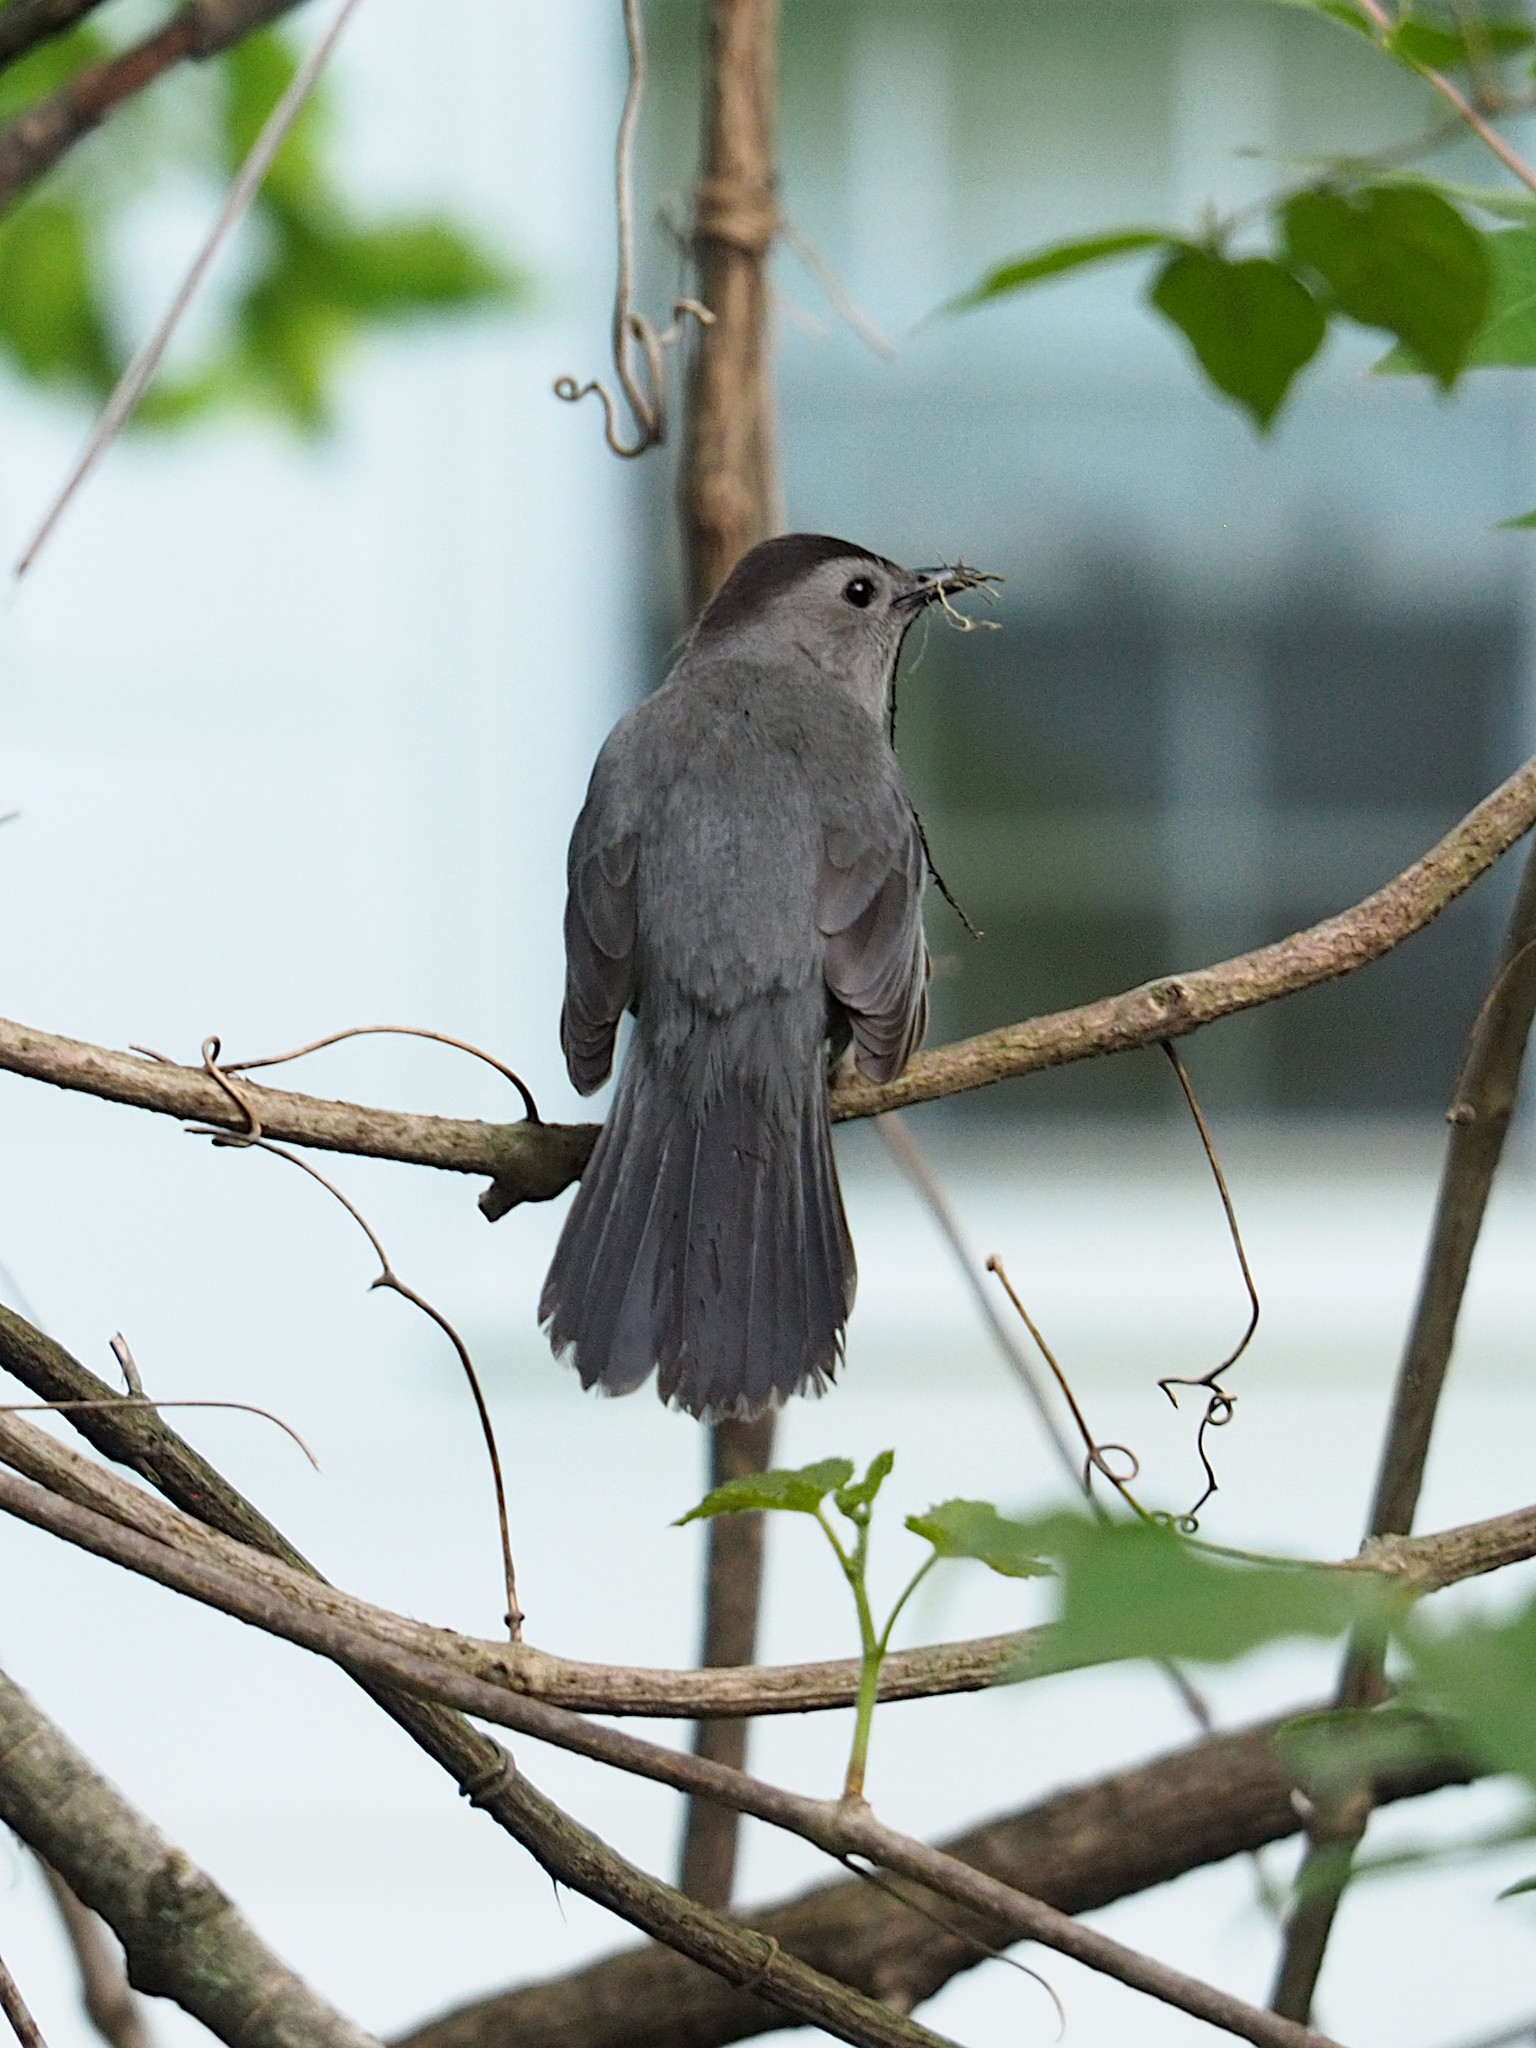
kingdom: Animalia
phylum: Chordata
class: Aves
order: Passeriformes
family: Mimidae
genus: Dumetella
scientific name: Dumetella carolinensis
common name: Gray catbird
